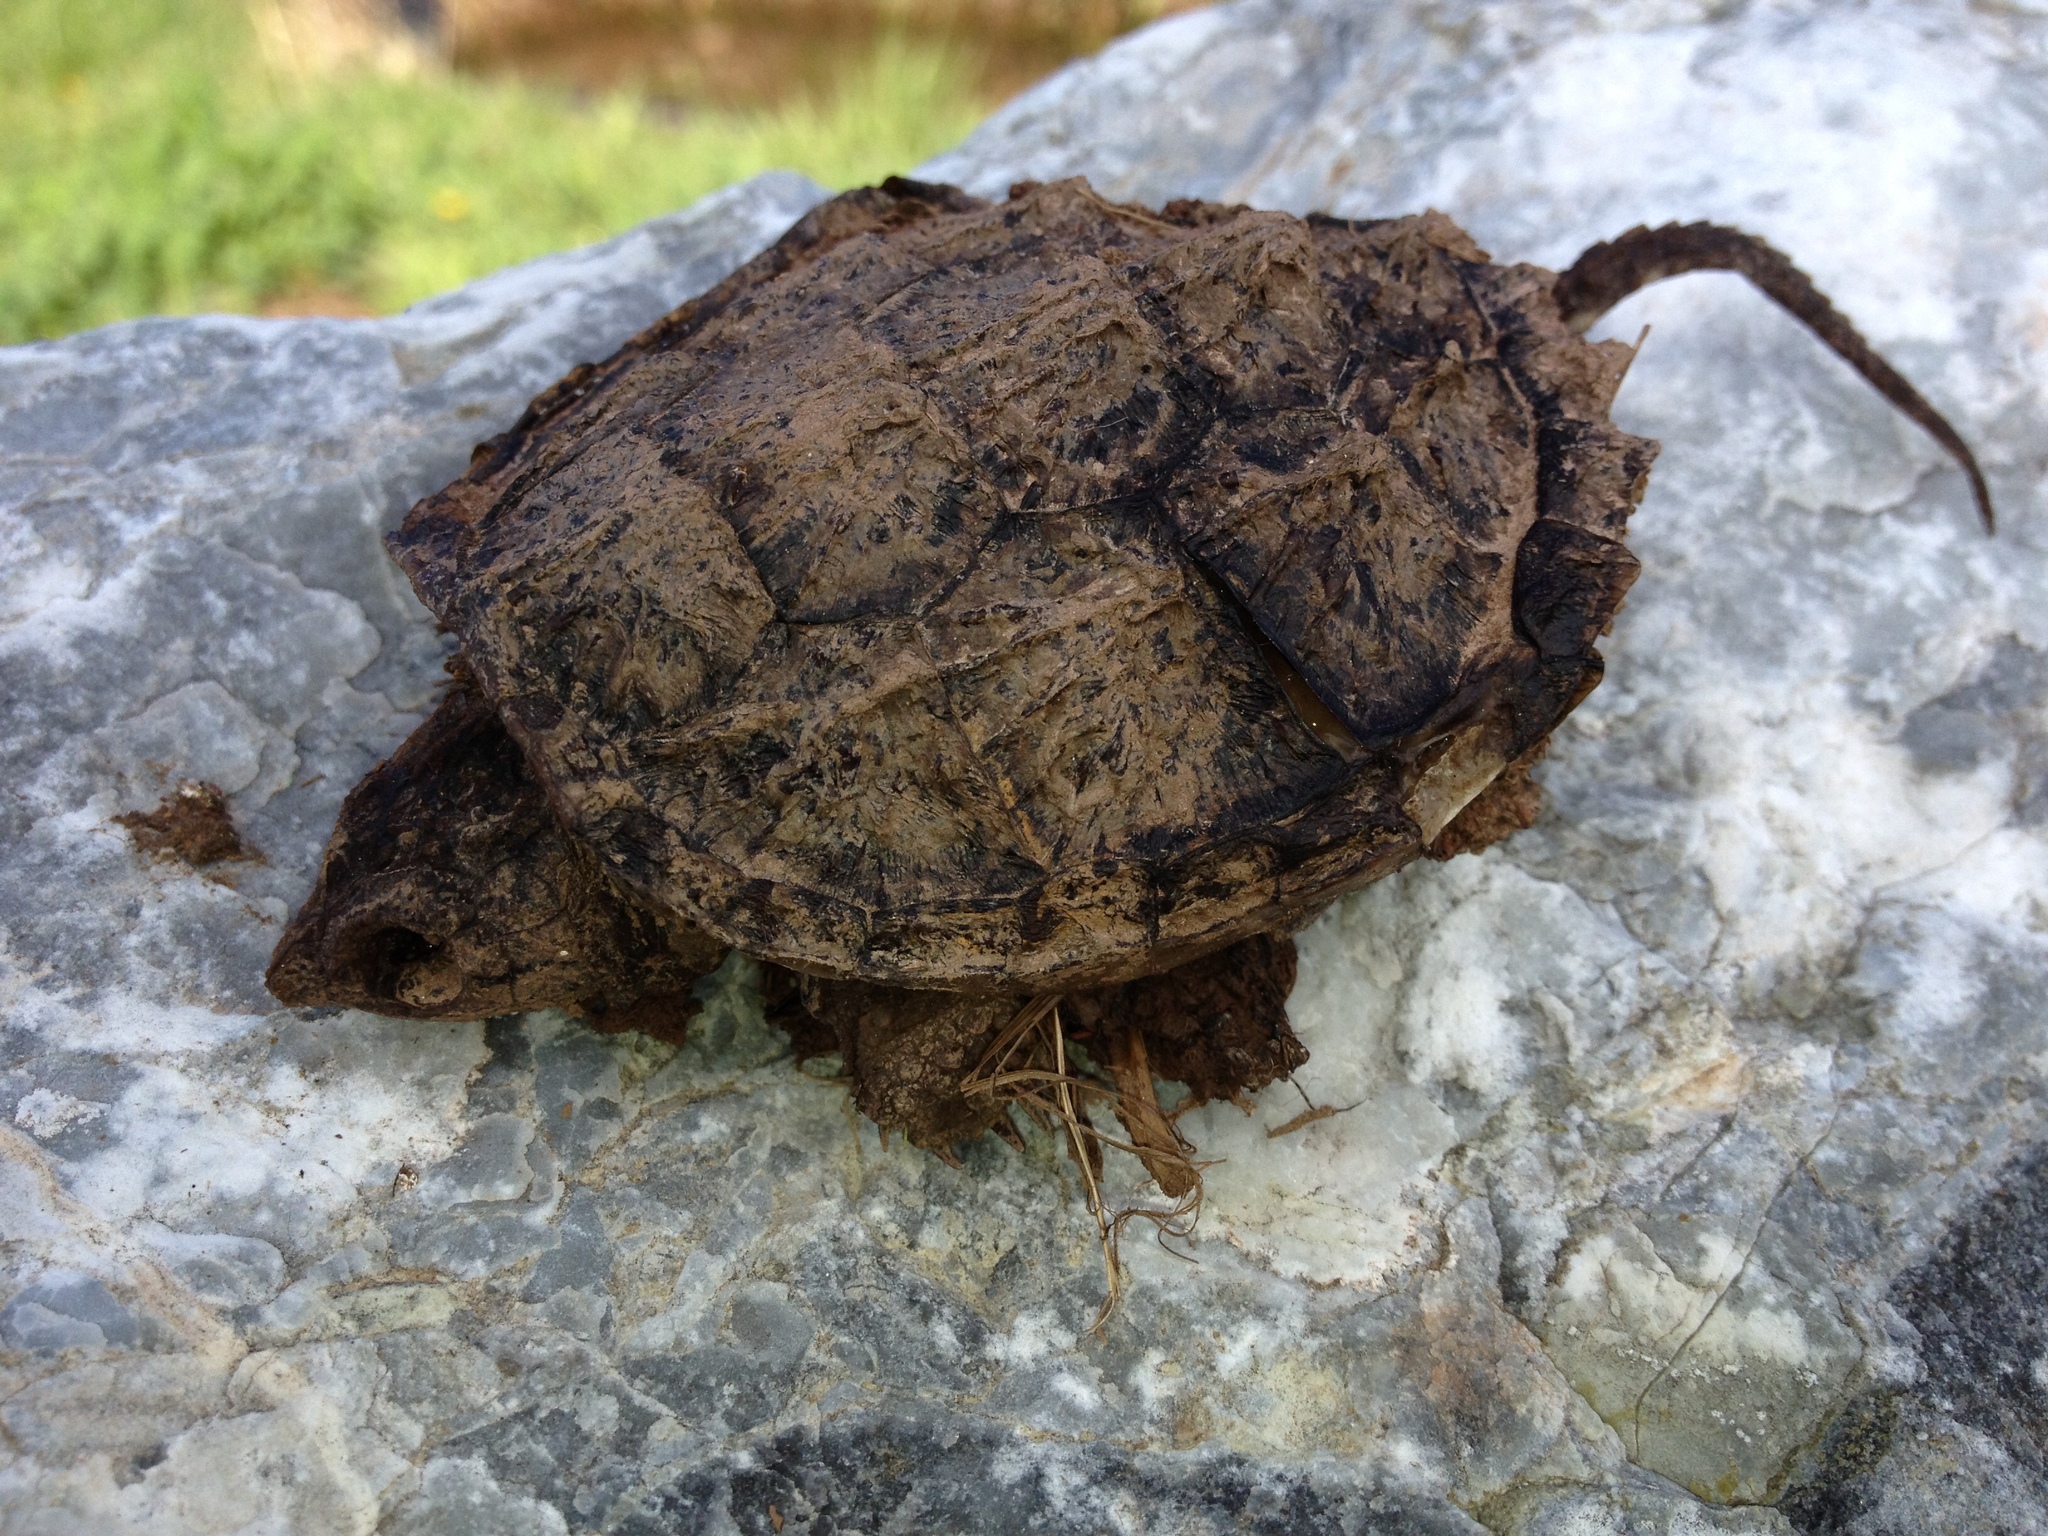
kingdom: Animalia
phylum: Chordata
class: Testudines
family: Chelydridae
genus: Chelydra
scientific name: Chelydra serpentina
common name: Common snapping turtle
